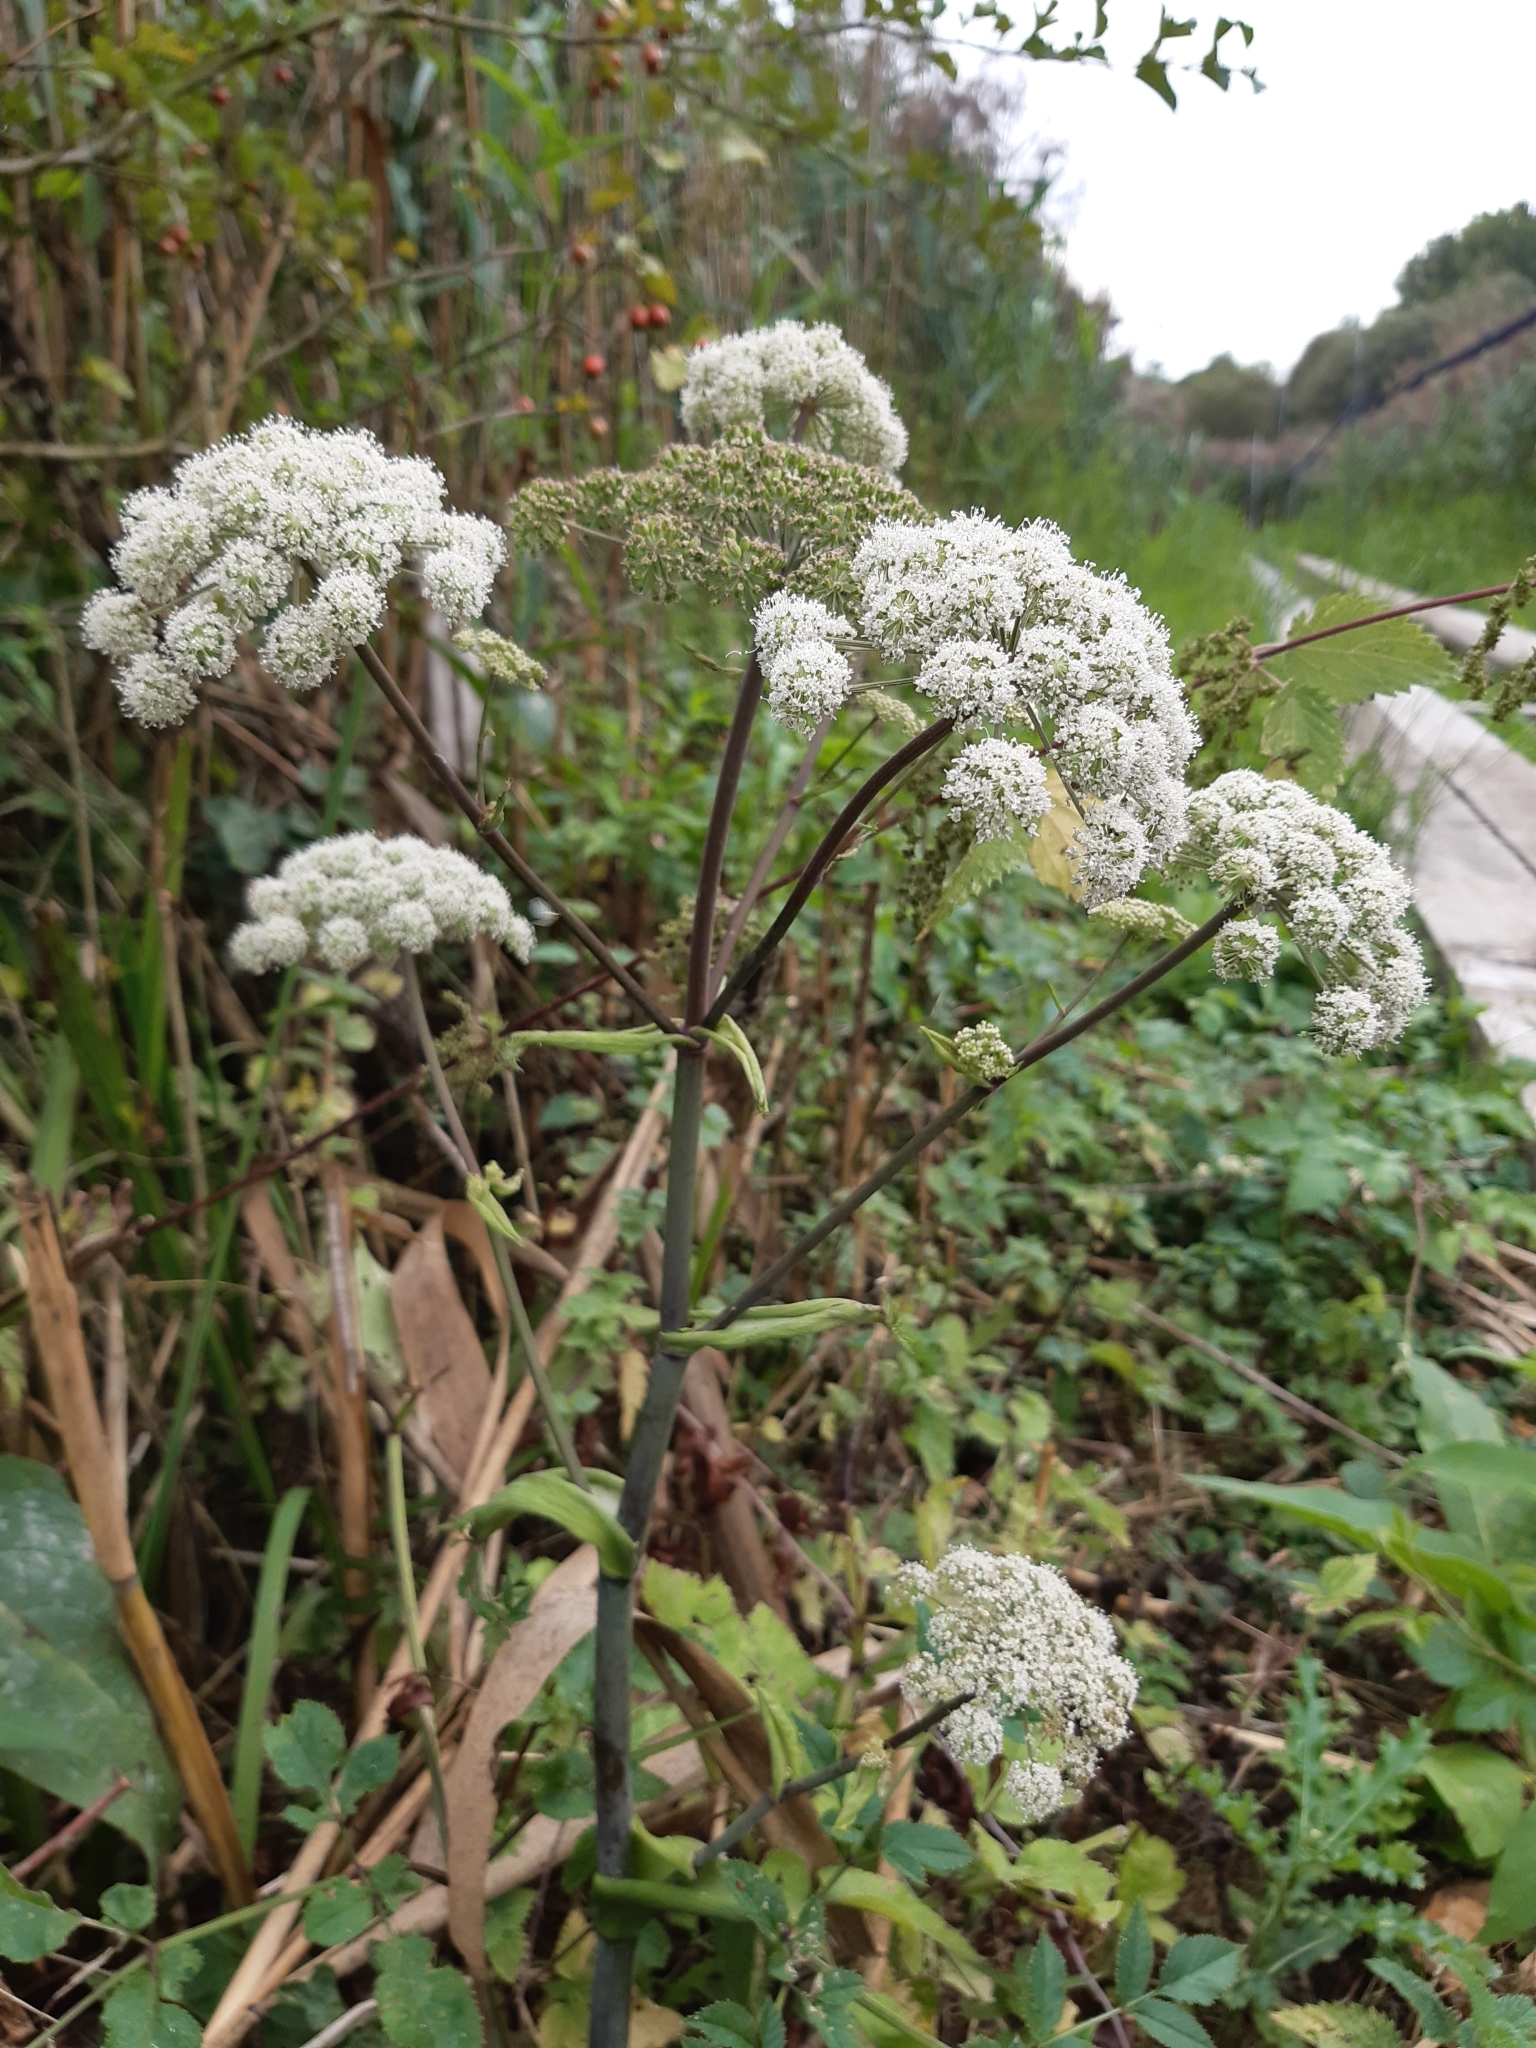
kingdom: Plantae
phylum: Tracheophyta
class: Magnoliopsida
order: Apiales
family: Apiaceae
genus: Angelica
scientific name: Angelica sylvestris
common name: Wild angelica
